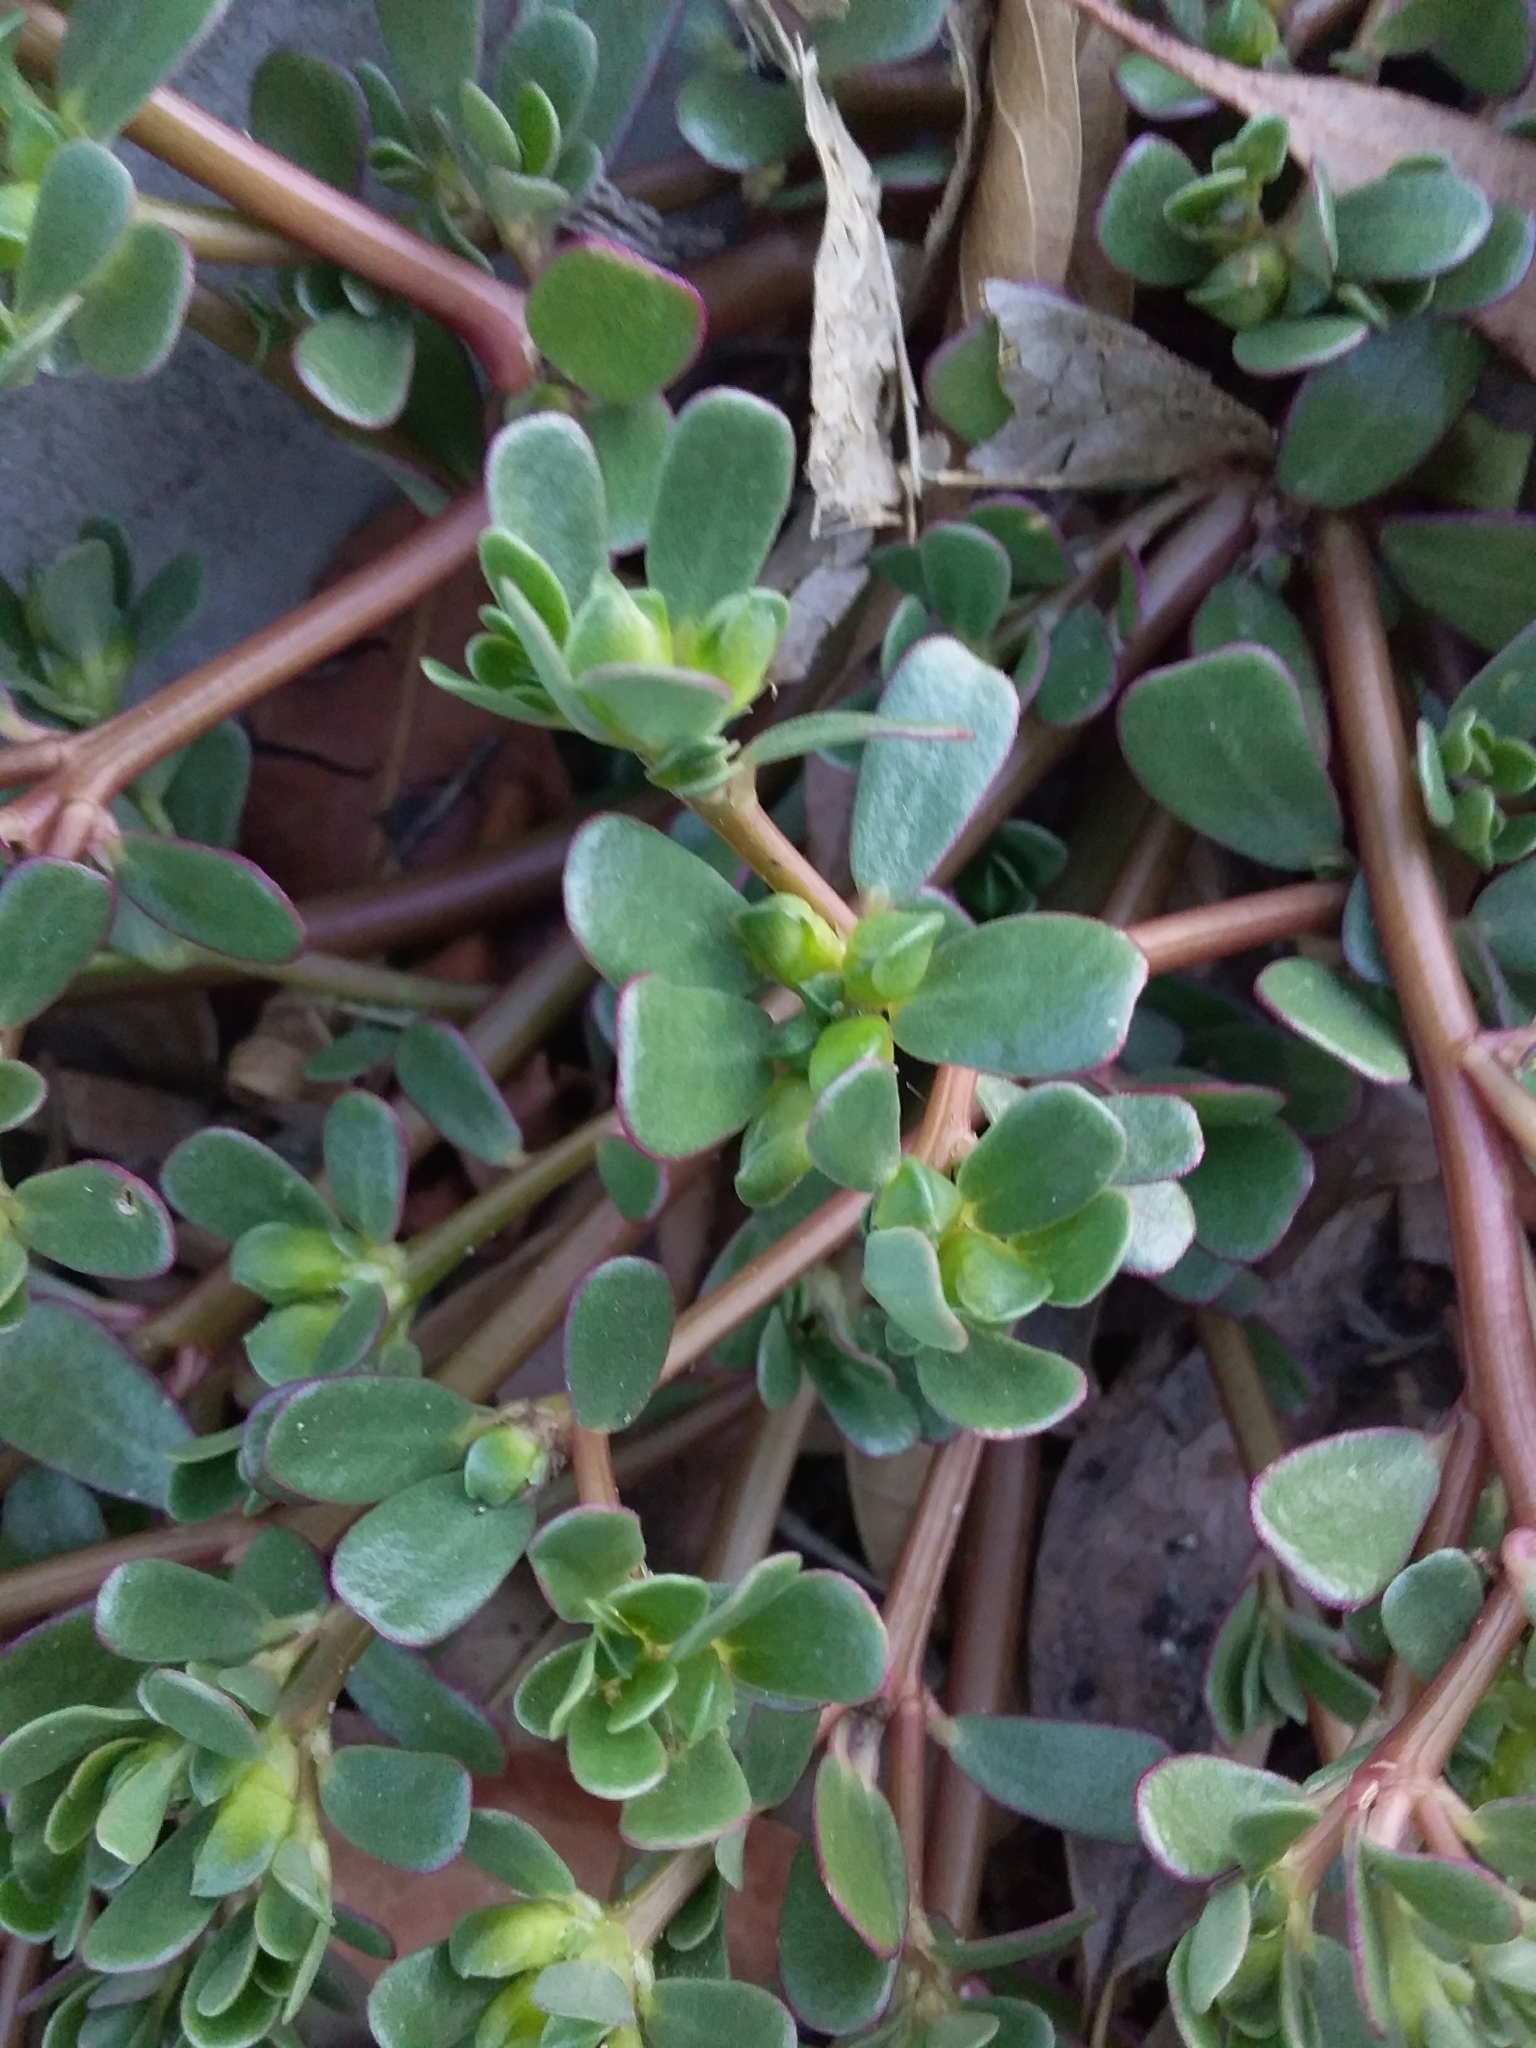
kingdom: Plantae
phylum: Tracheophyta
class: Magnoliopsida
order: Caryophyllales
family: Portulacaceae
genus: Portulaca
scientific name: Portulaca oleracea
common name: Common purslane
